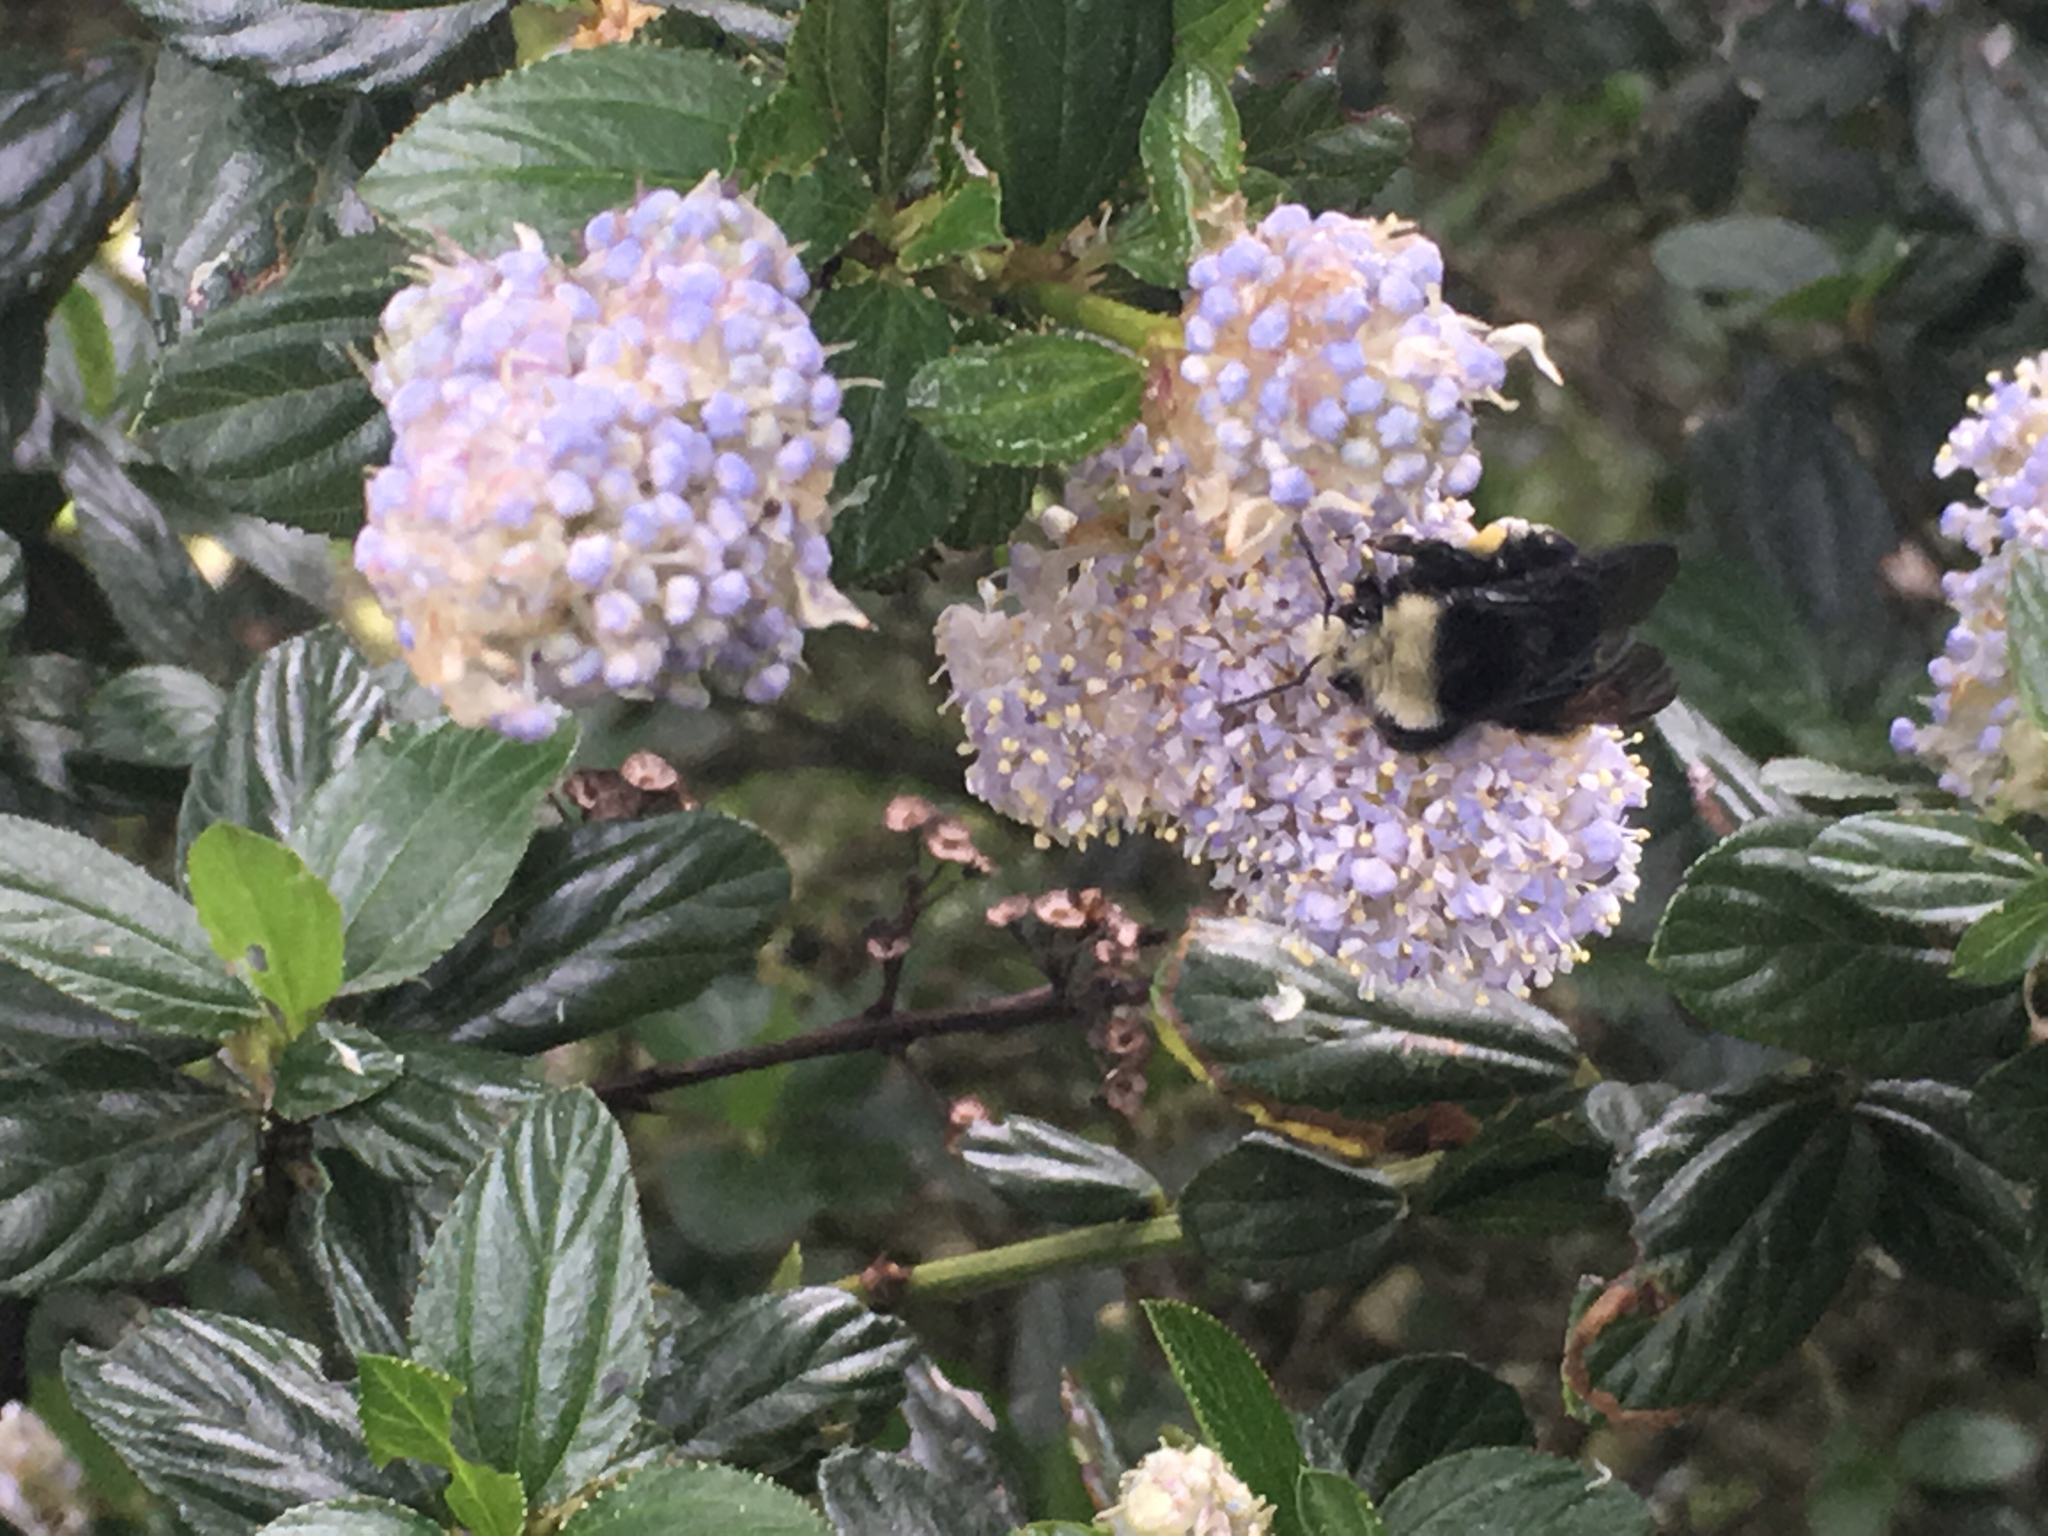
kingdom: Animalia
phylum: Arthropoda
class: Insecta
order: Hymenoptera
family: Apidae
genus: Pyrobombus
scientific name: Pyrobombus
